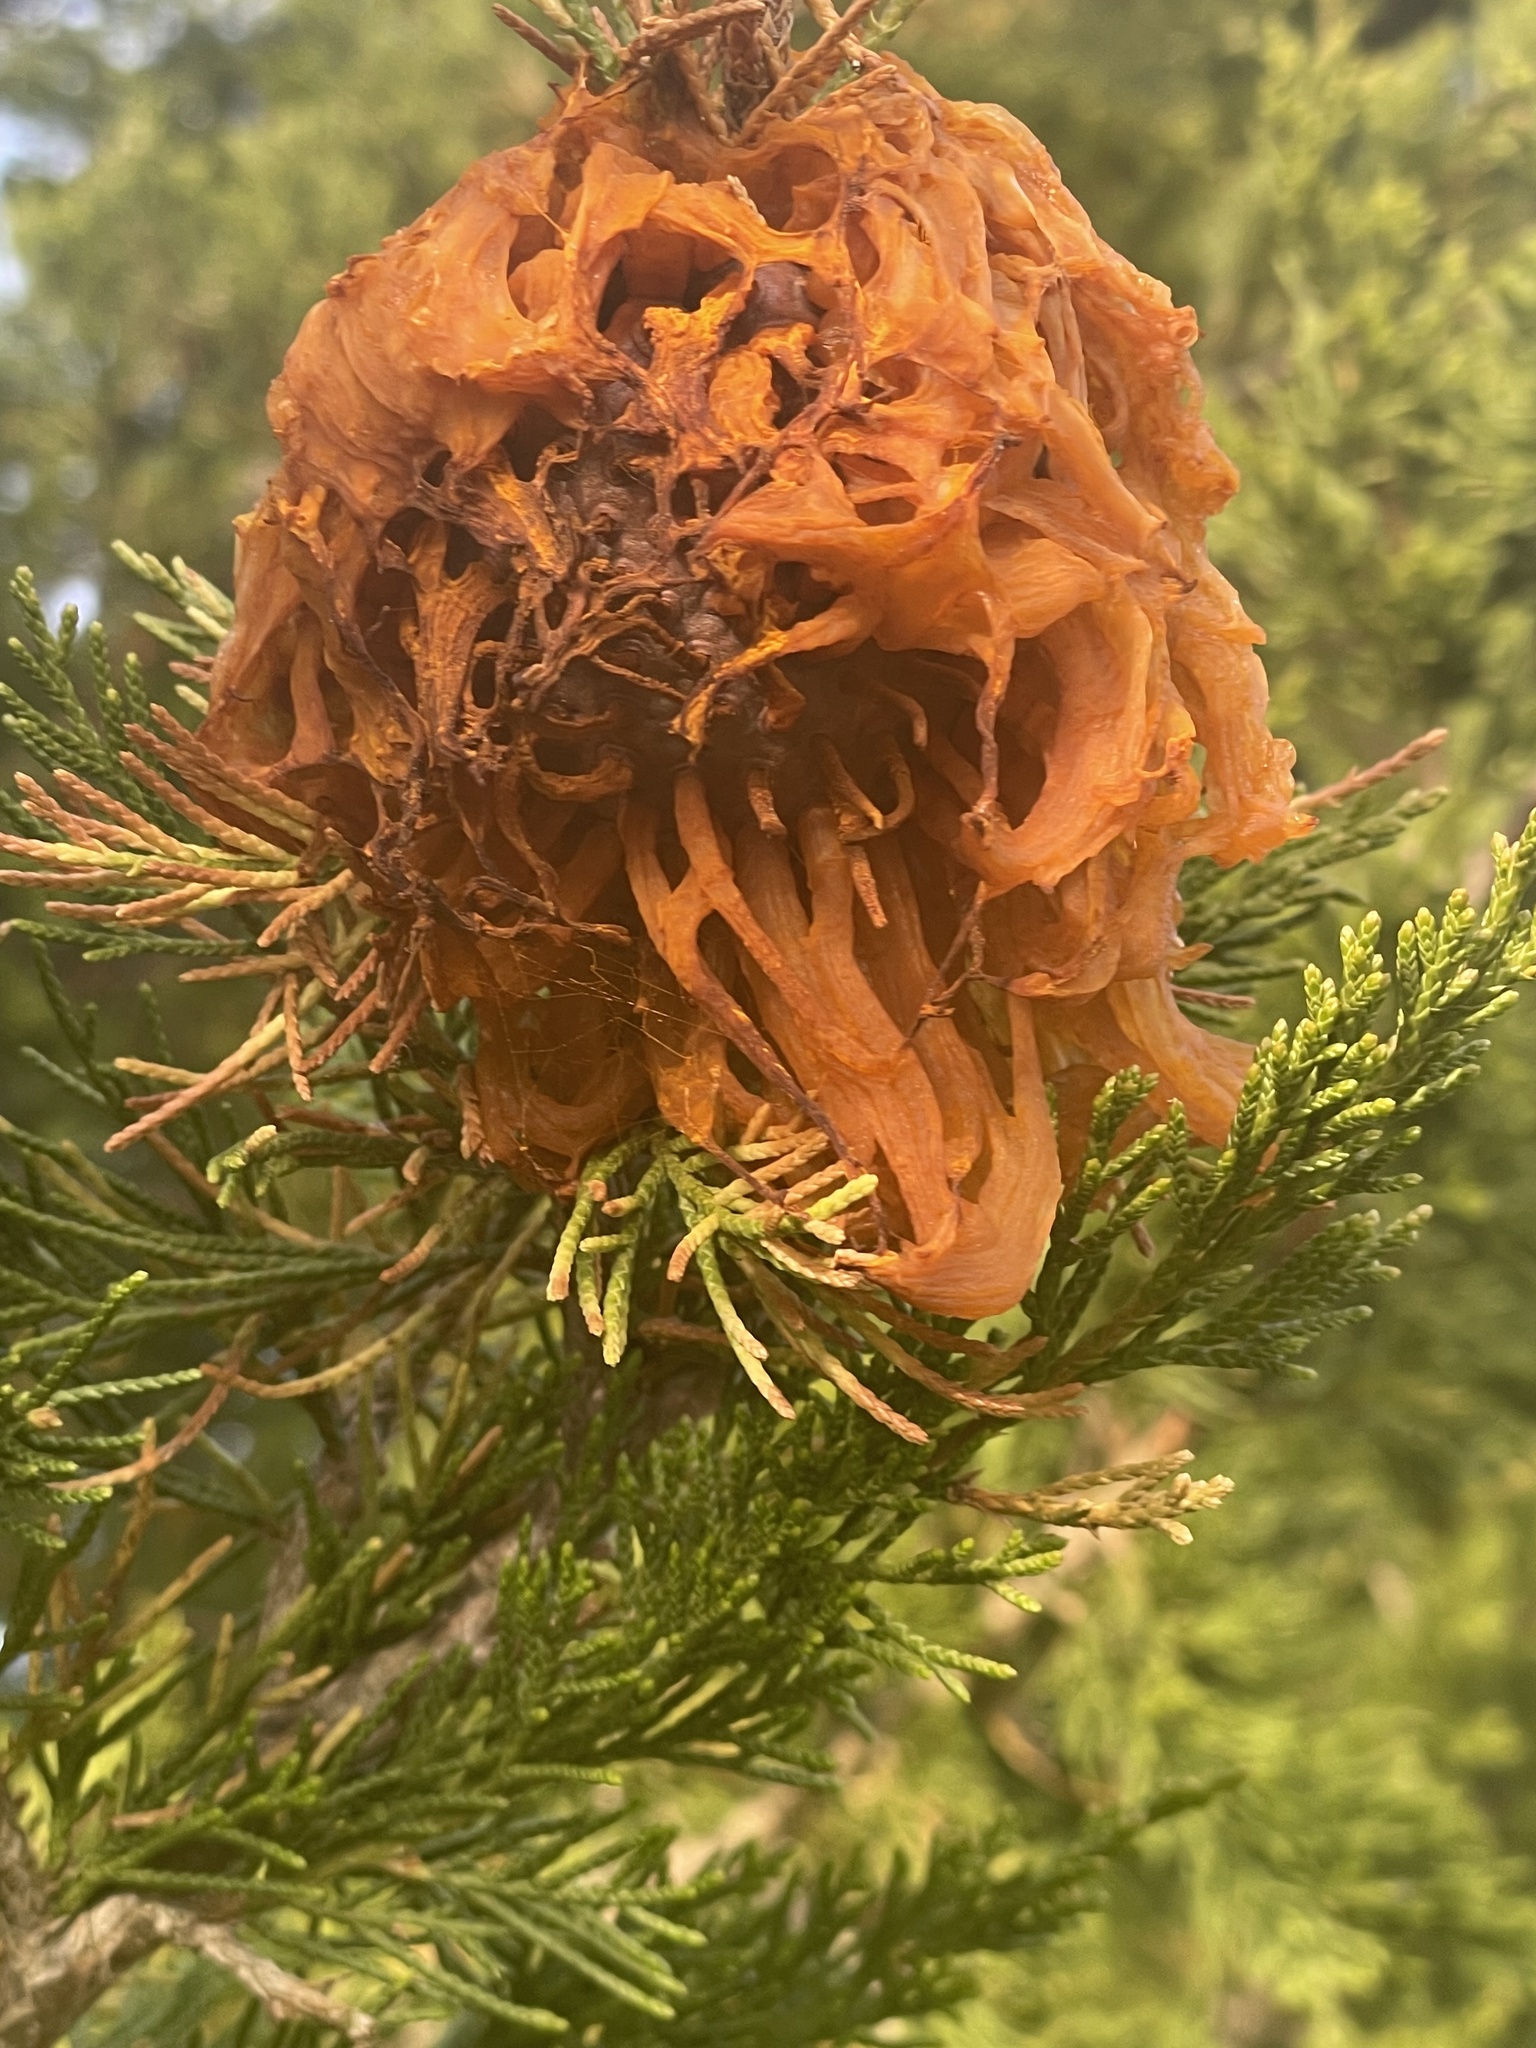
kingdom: Fungi
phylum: Basidiomycota
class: Pucciniomycetes
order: Pucciniales
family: Gymnosporangiaceae
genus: Gymnosporangium
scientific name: Gymnosporangium juniperi-virginianae
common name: Juniper-apple rust
